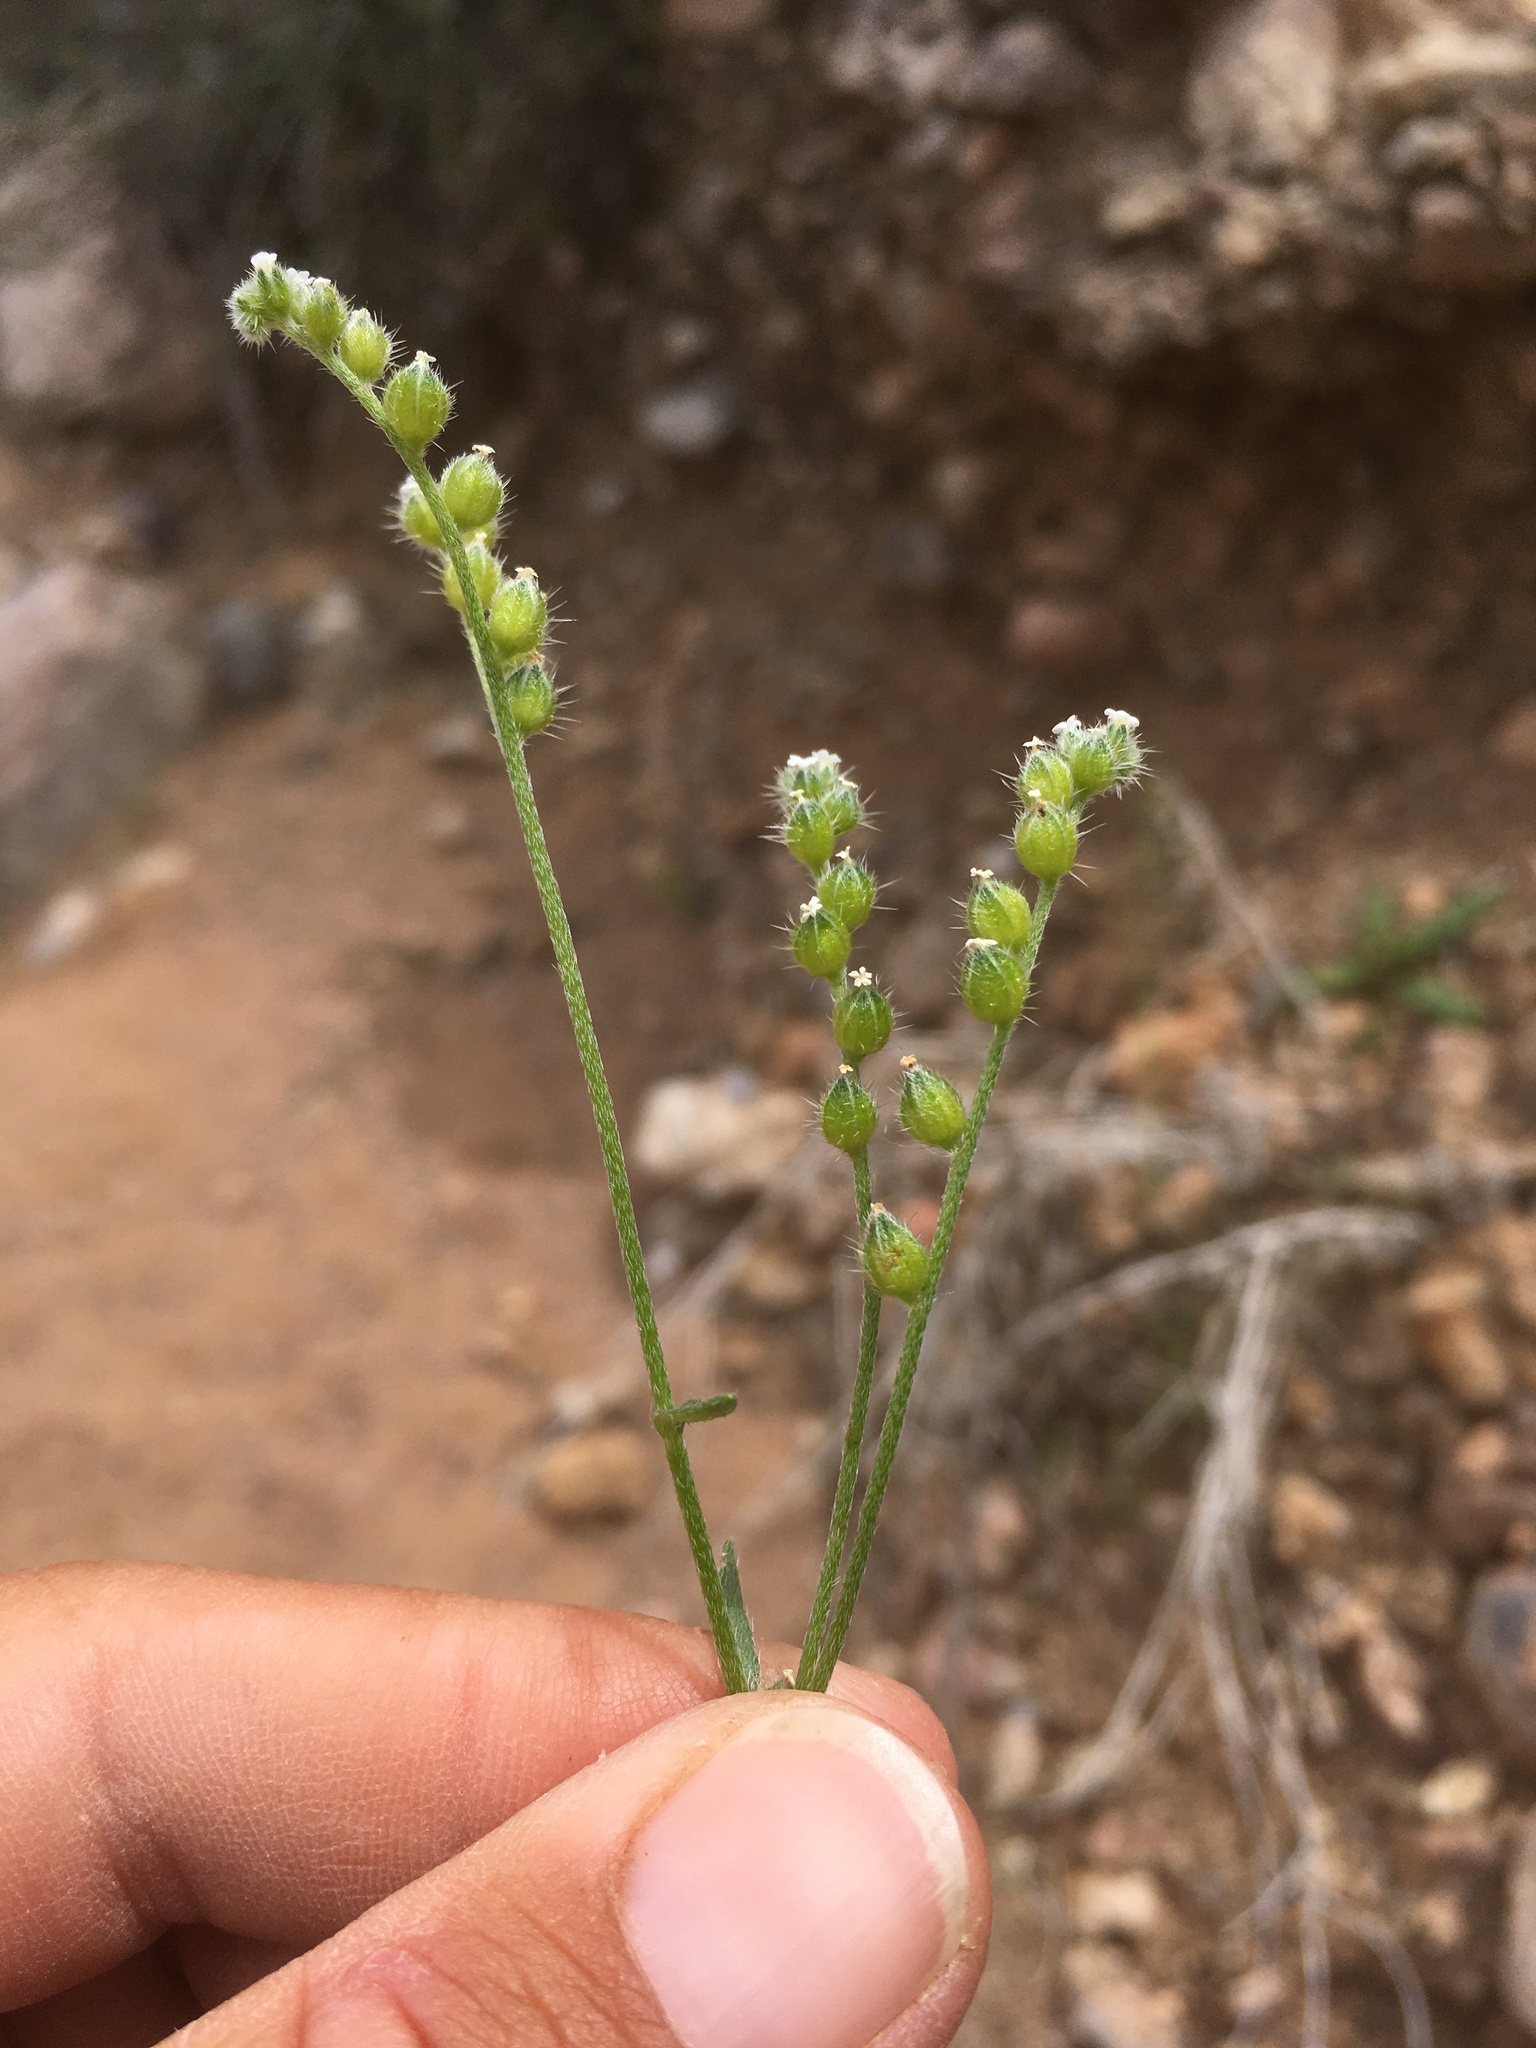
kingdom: Plantae
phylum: Tracheophyta
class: Magnoliopsida
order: Boraginales
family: Boraginaceae
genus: Cryptantha
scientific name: Cryptantha pterocarya
